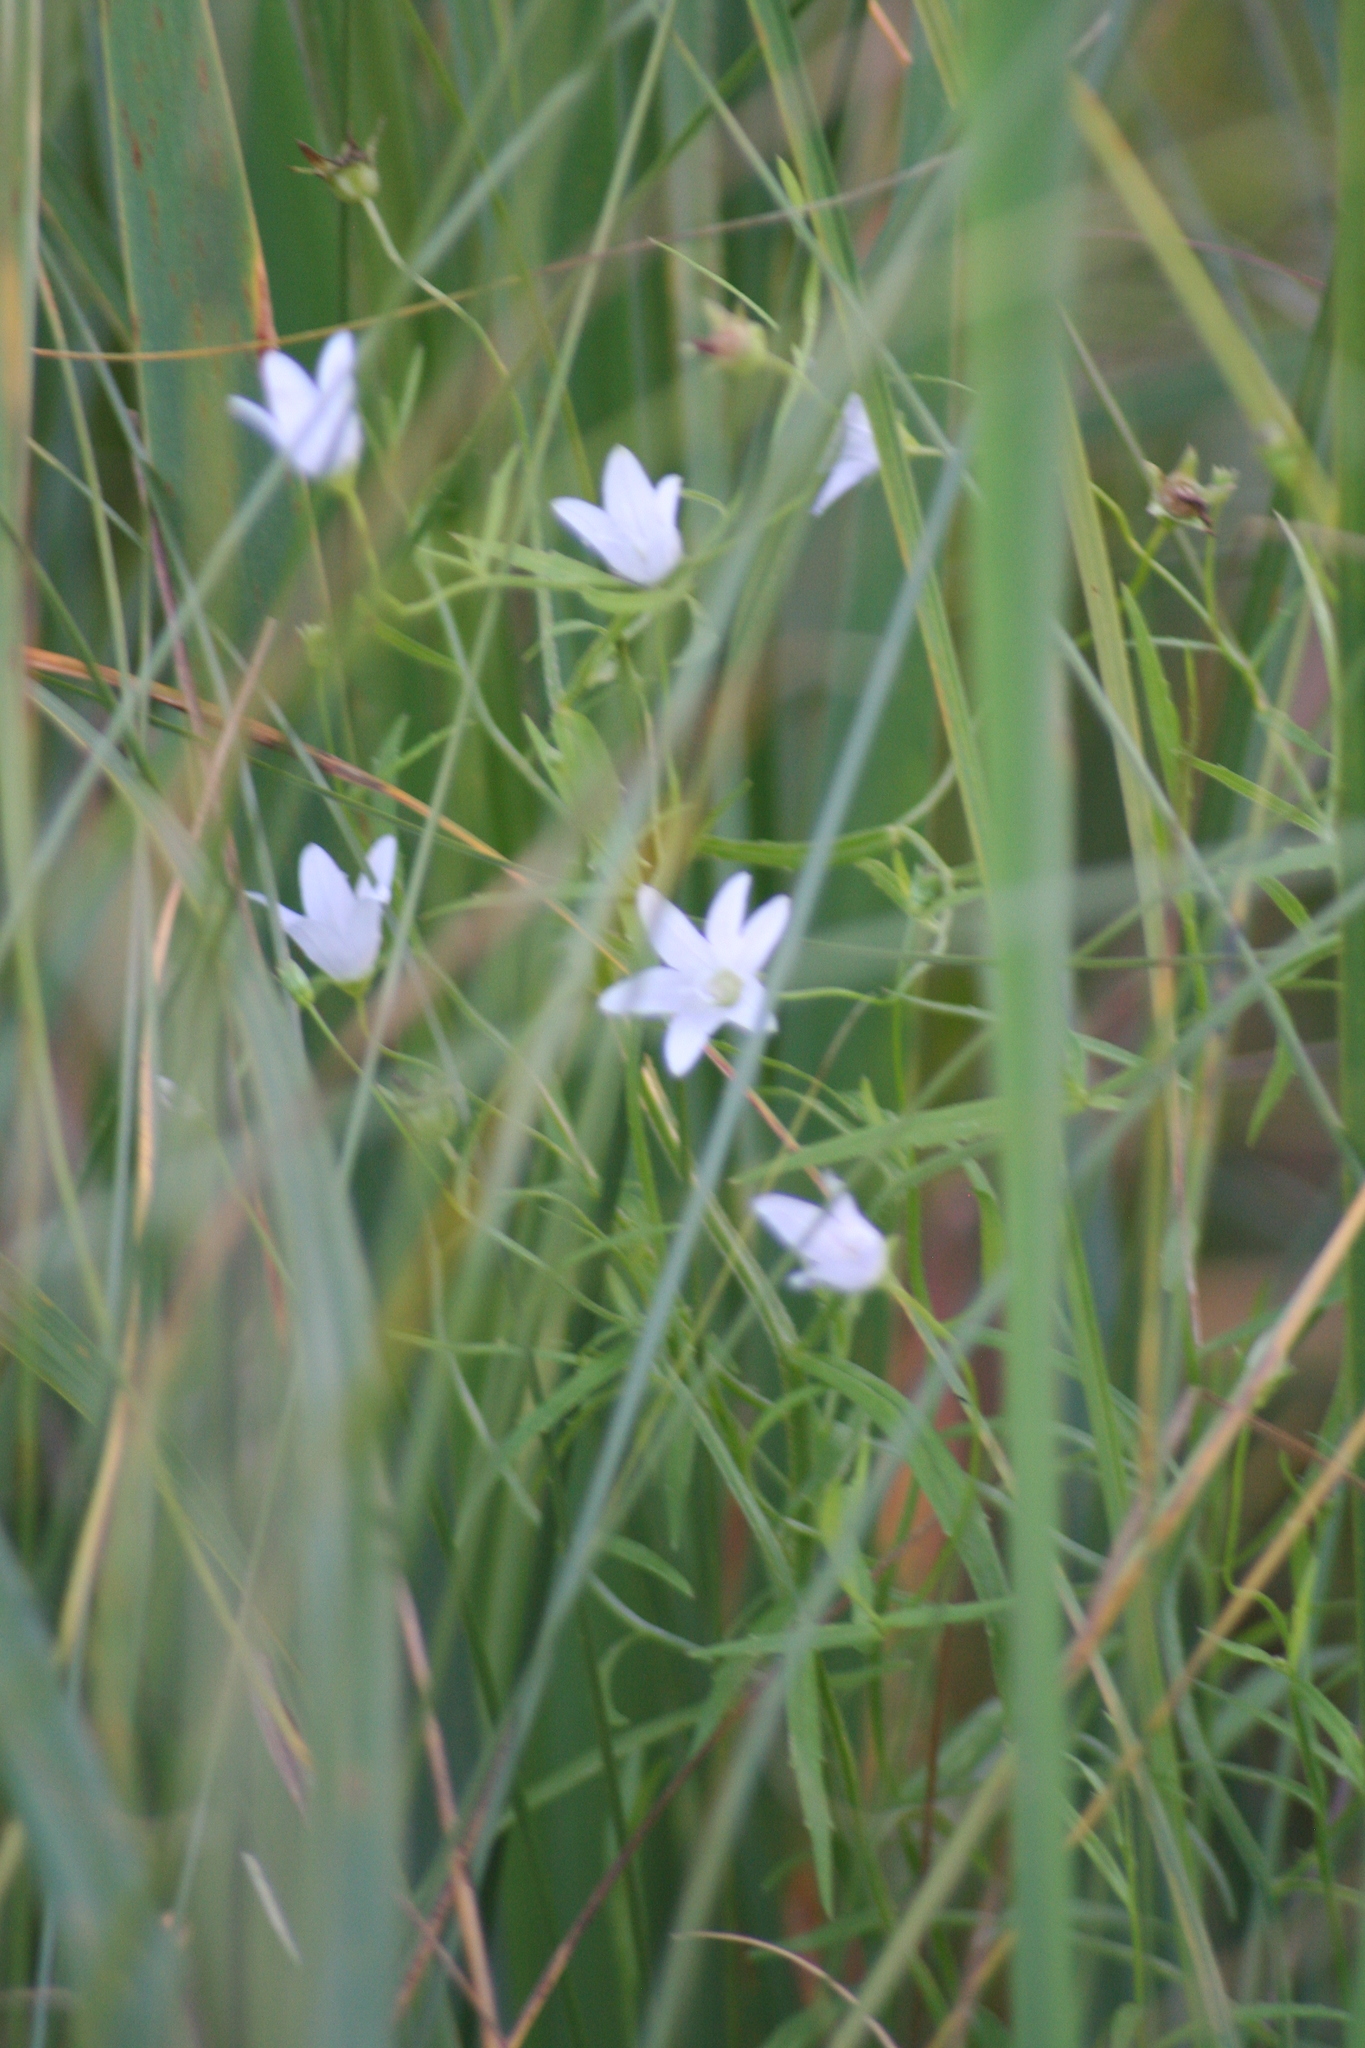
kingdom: Plantae
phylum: Tracheophyta
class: Magnoliopsida
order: Asterales
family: Campanulaceae
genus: Palustricodon
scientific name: Palustricodon aparinoides
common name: Bedstraw bellflower
